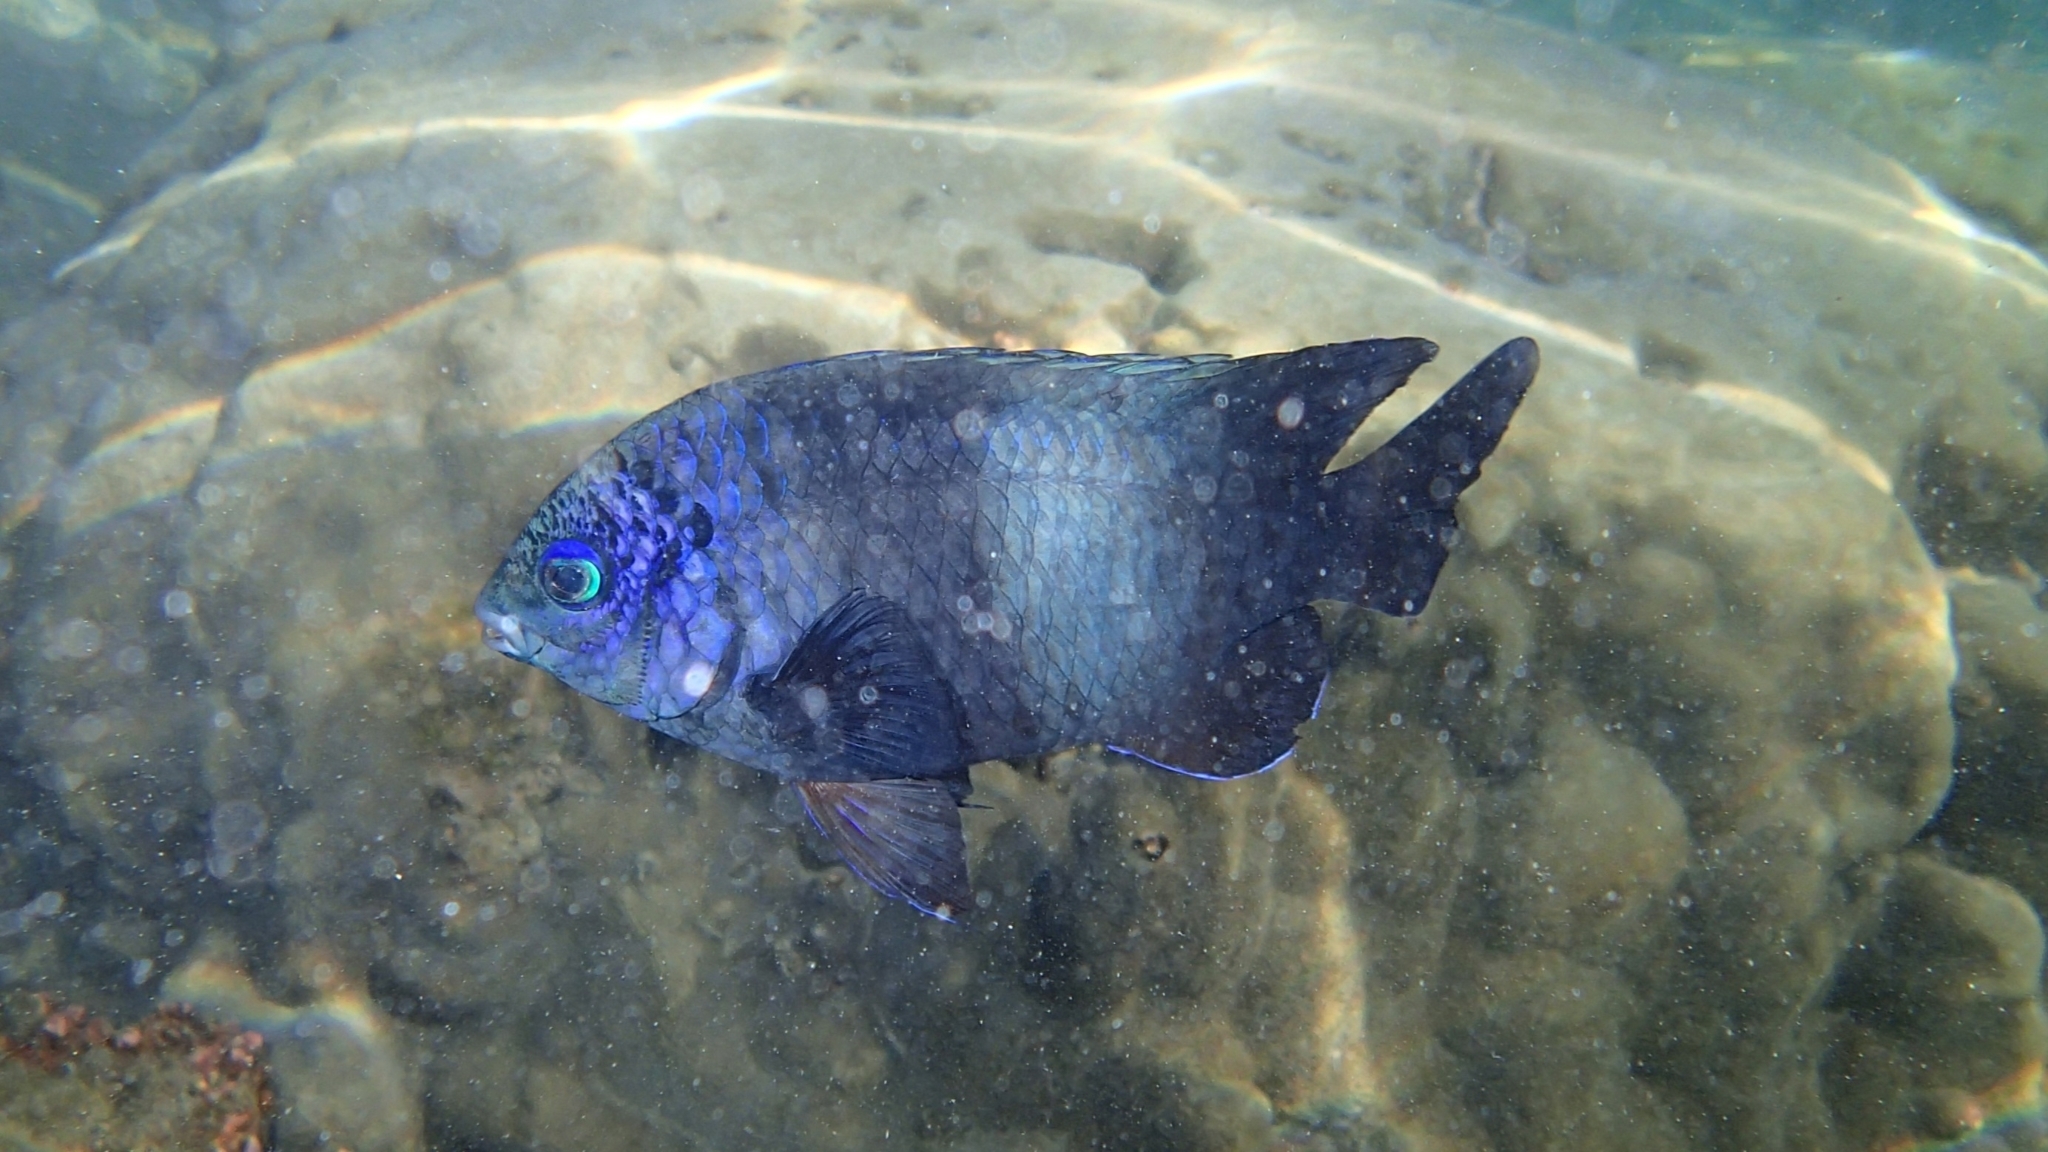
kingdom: Animalia
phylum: Chordata
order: Perciformes
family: Pomacentridae
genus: Stegastes
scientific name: Stegastes limbatus
